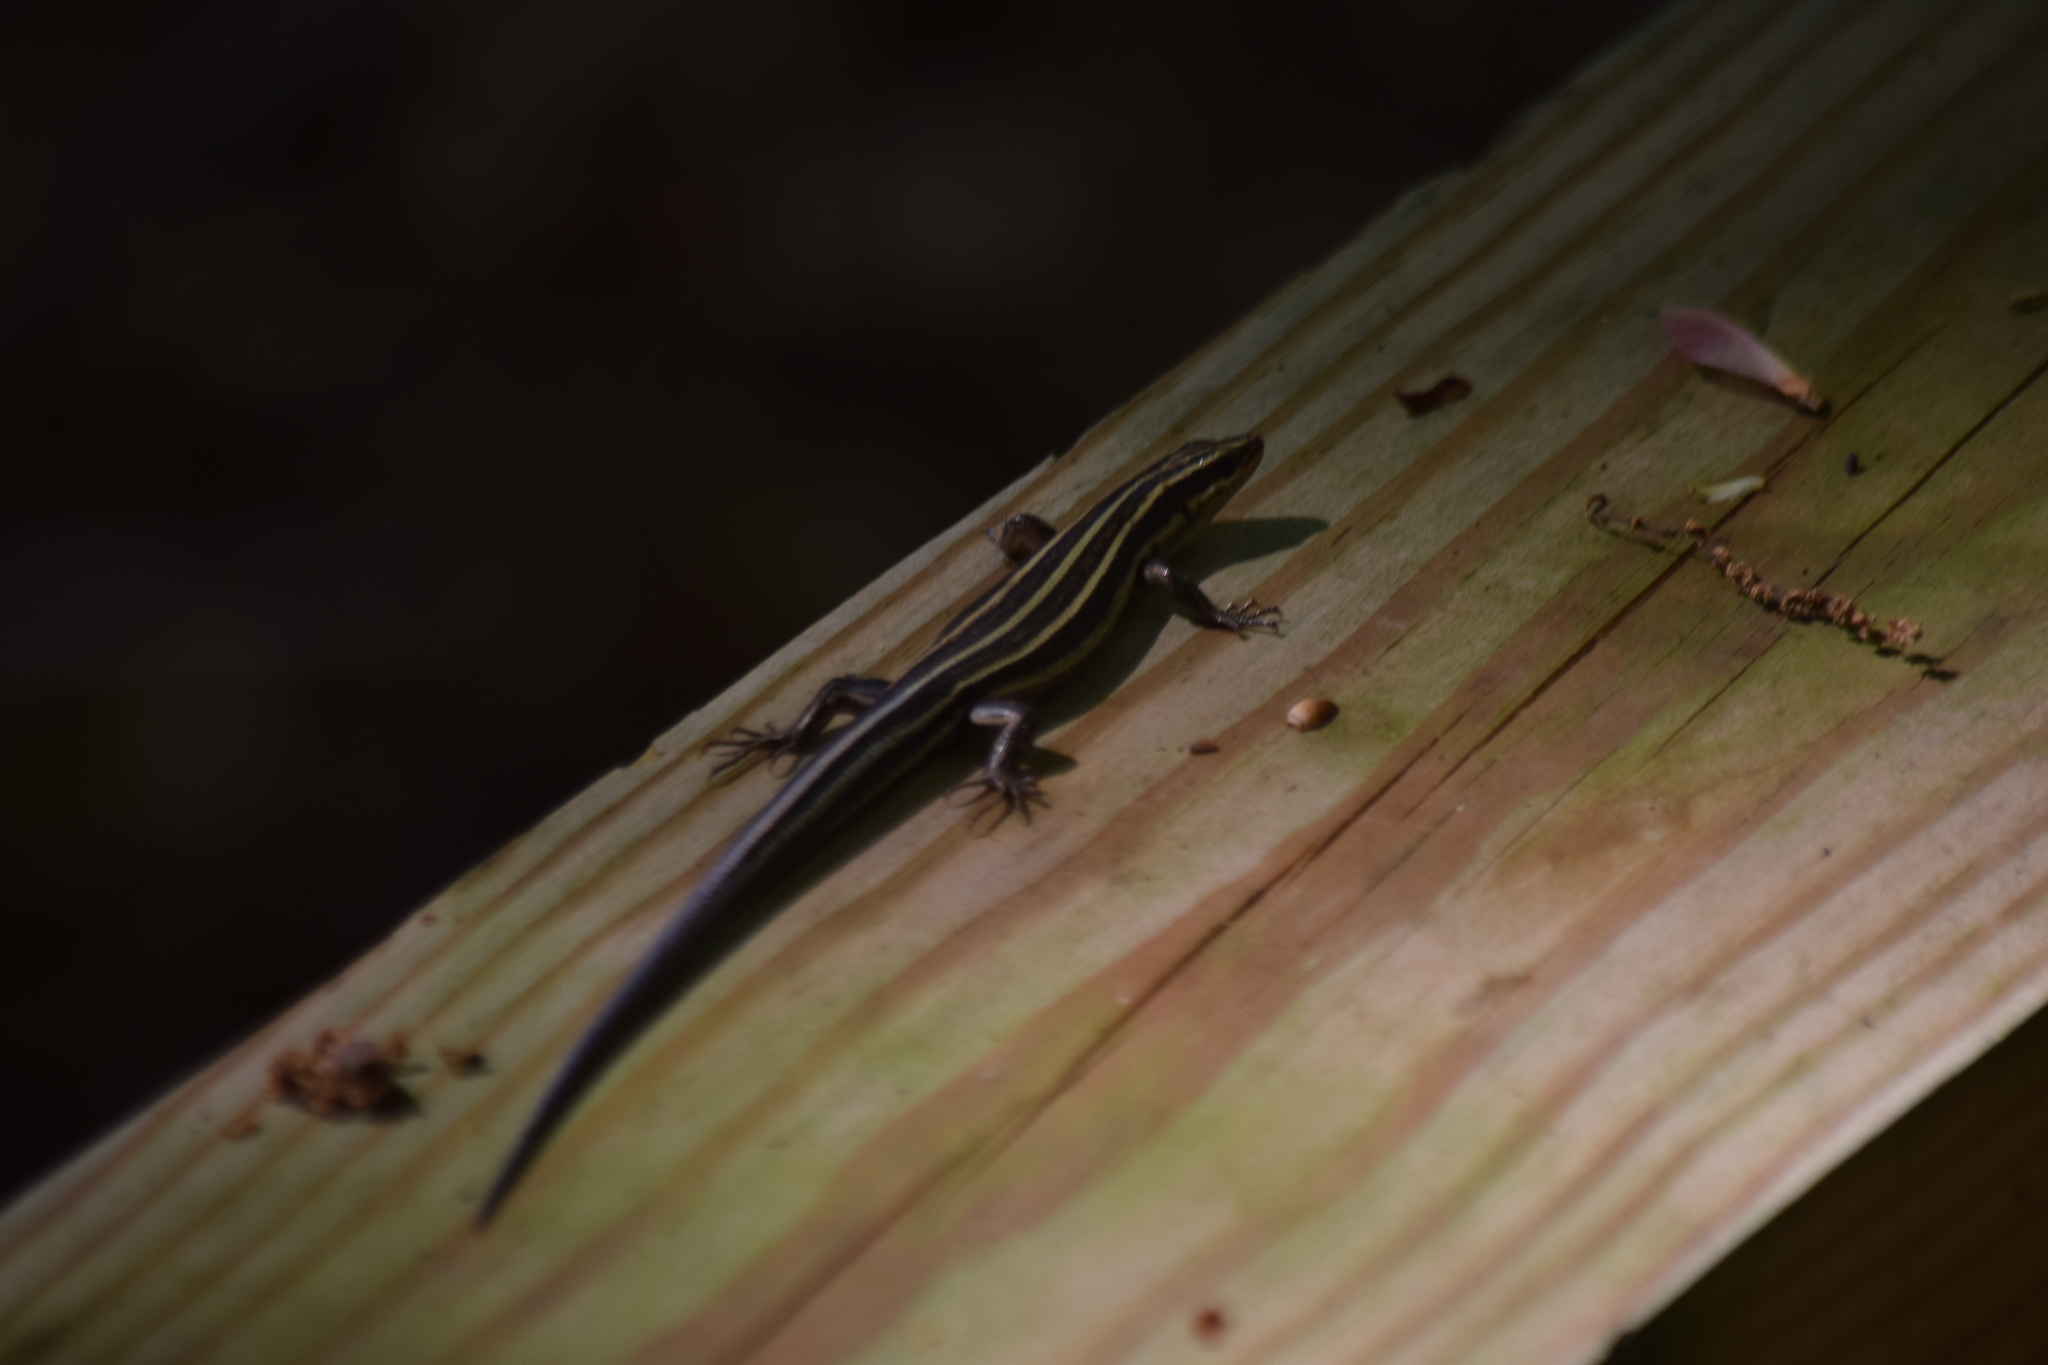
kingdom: Animalia
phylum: Chordata
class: Squamata
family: Scincidae
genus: Plestiodon
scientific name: Plestiodon
